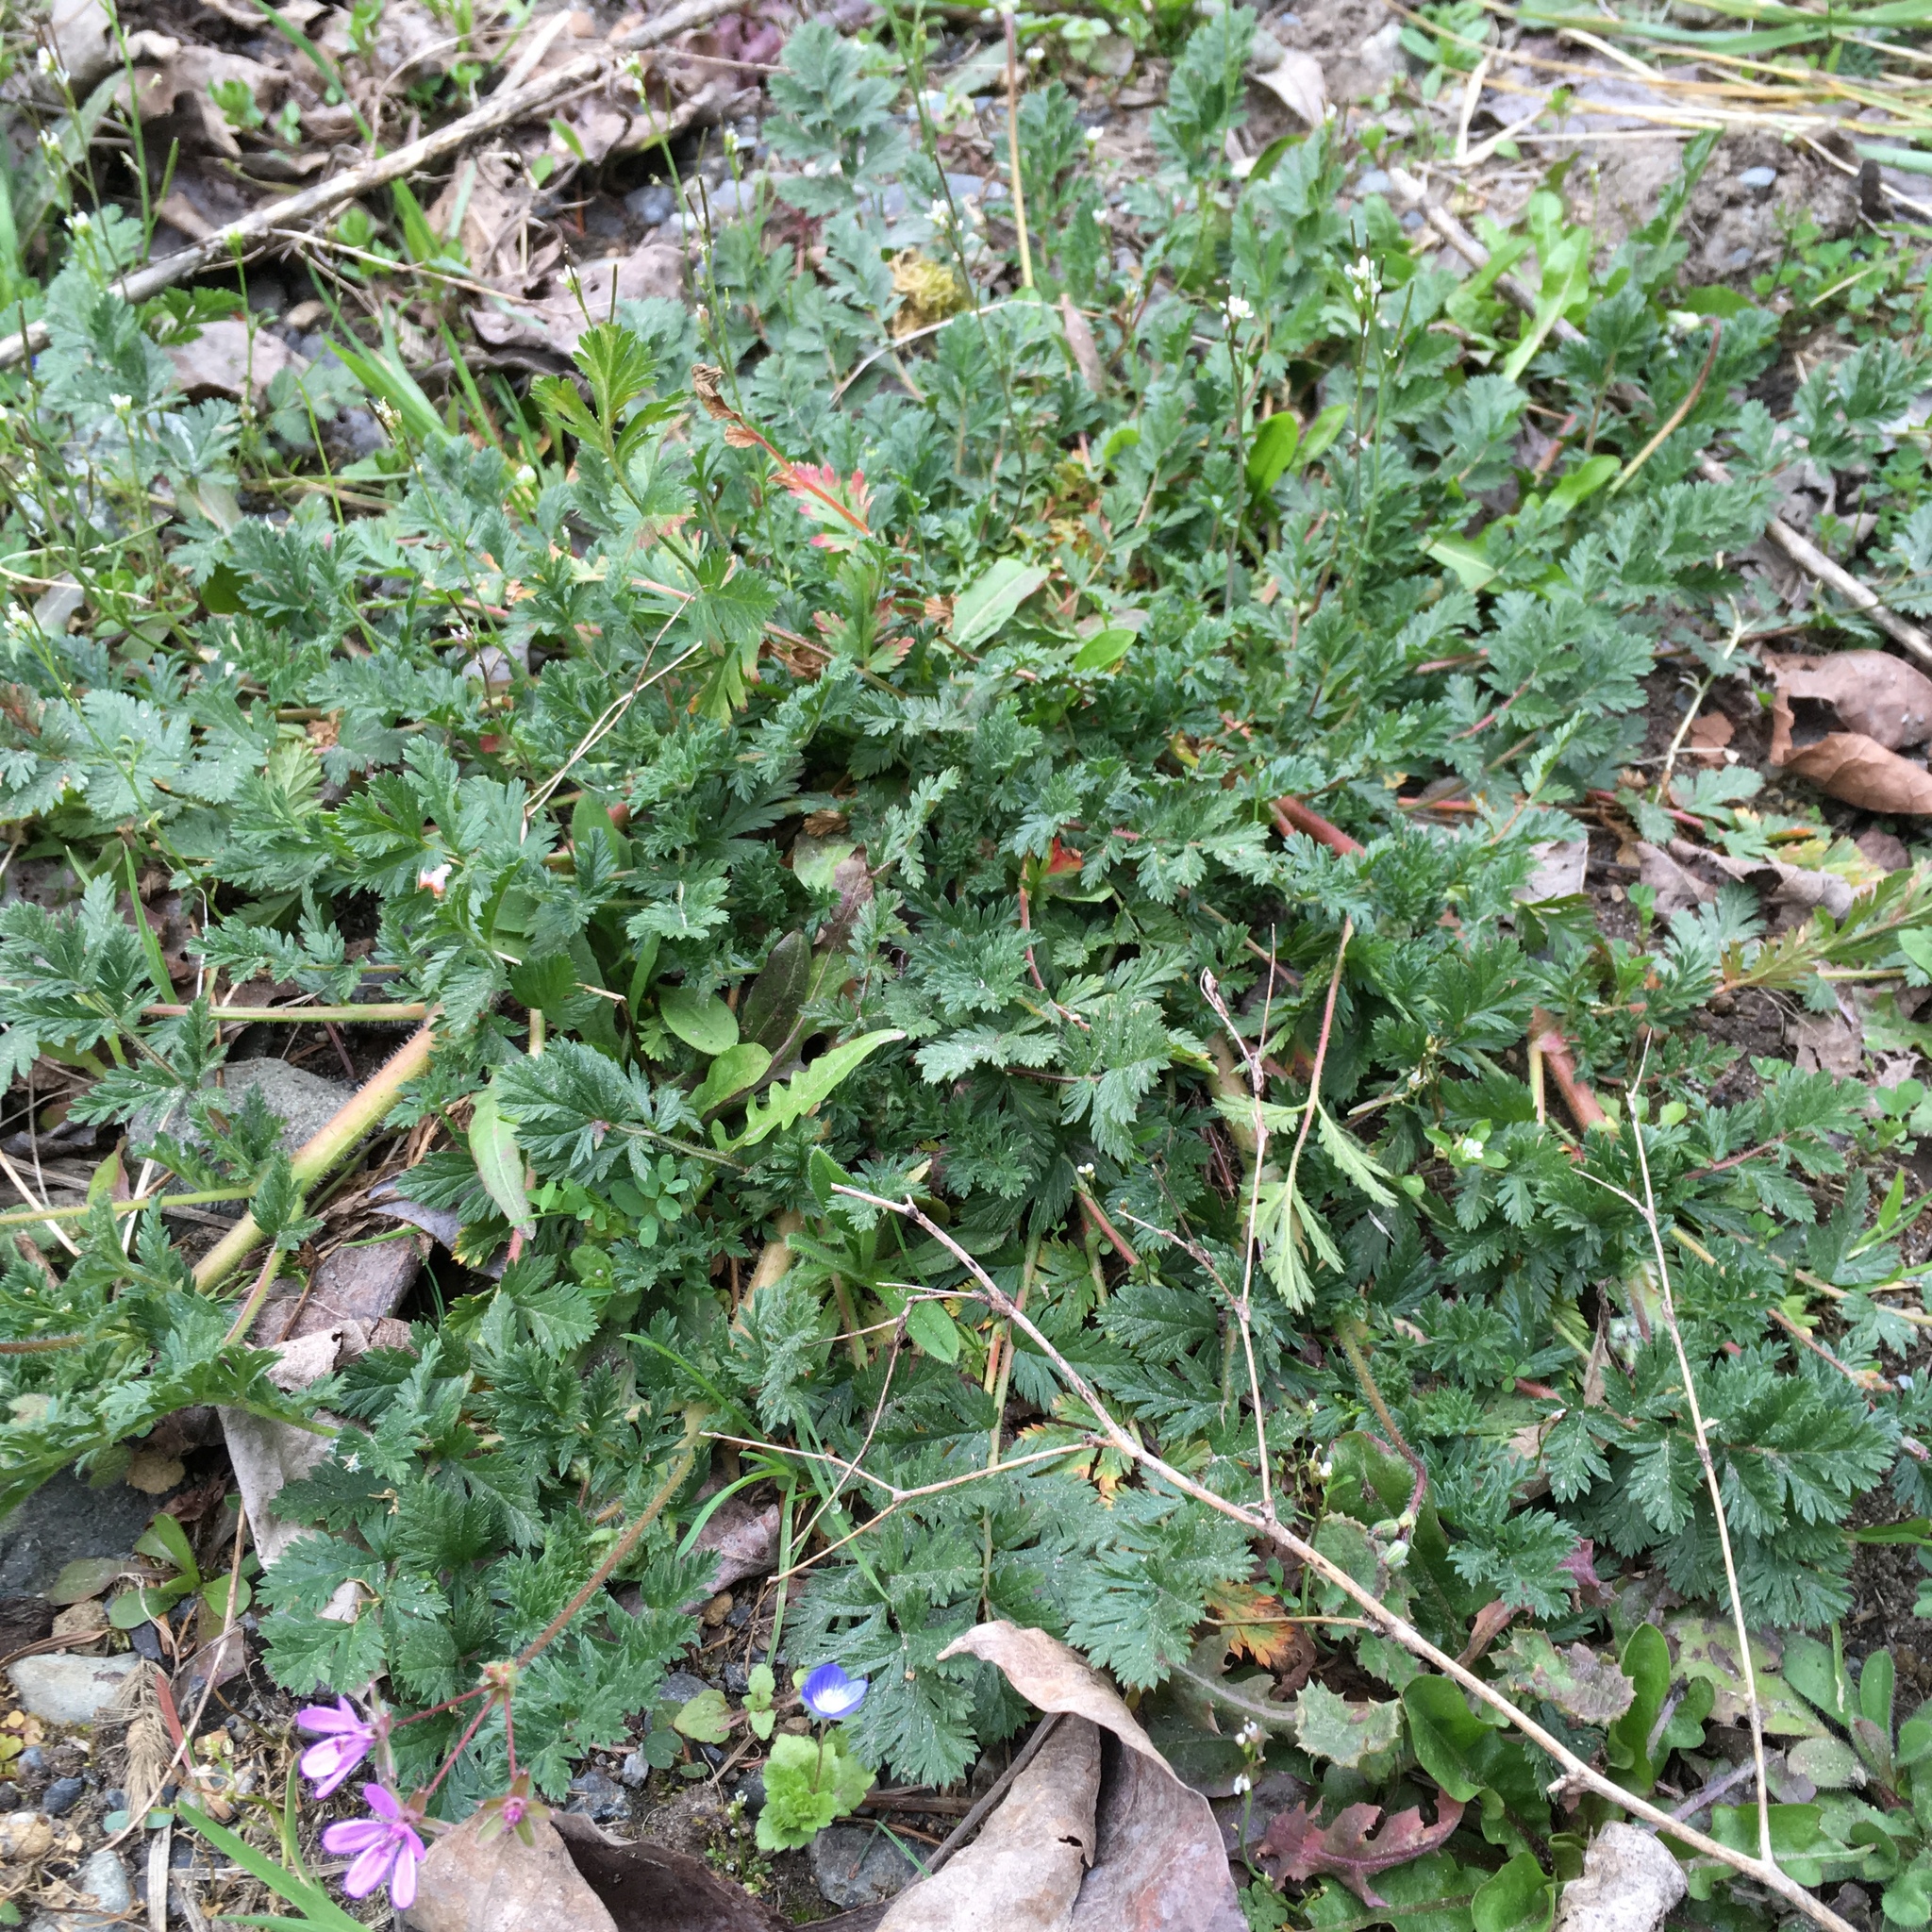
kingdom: Plantae
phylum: Tracheophyta
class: Magnoliopsida
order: Geraniales
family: Geraniaceae
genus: Erodium
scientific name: Erodium cicutarium
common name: Common stork's-bill
